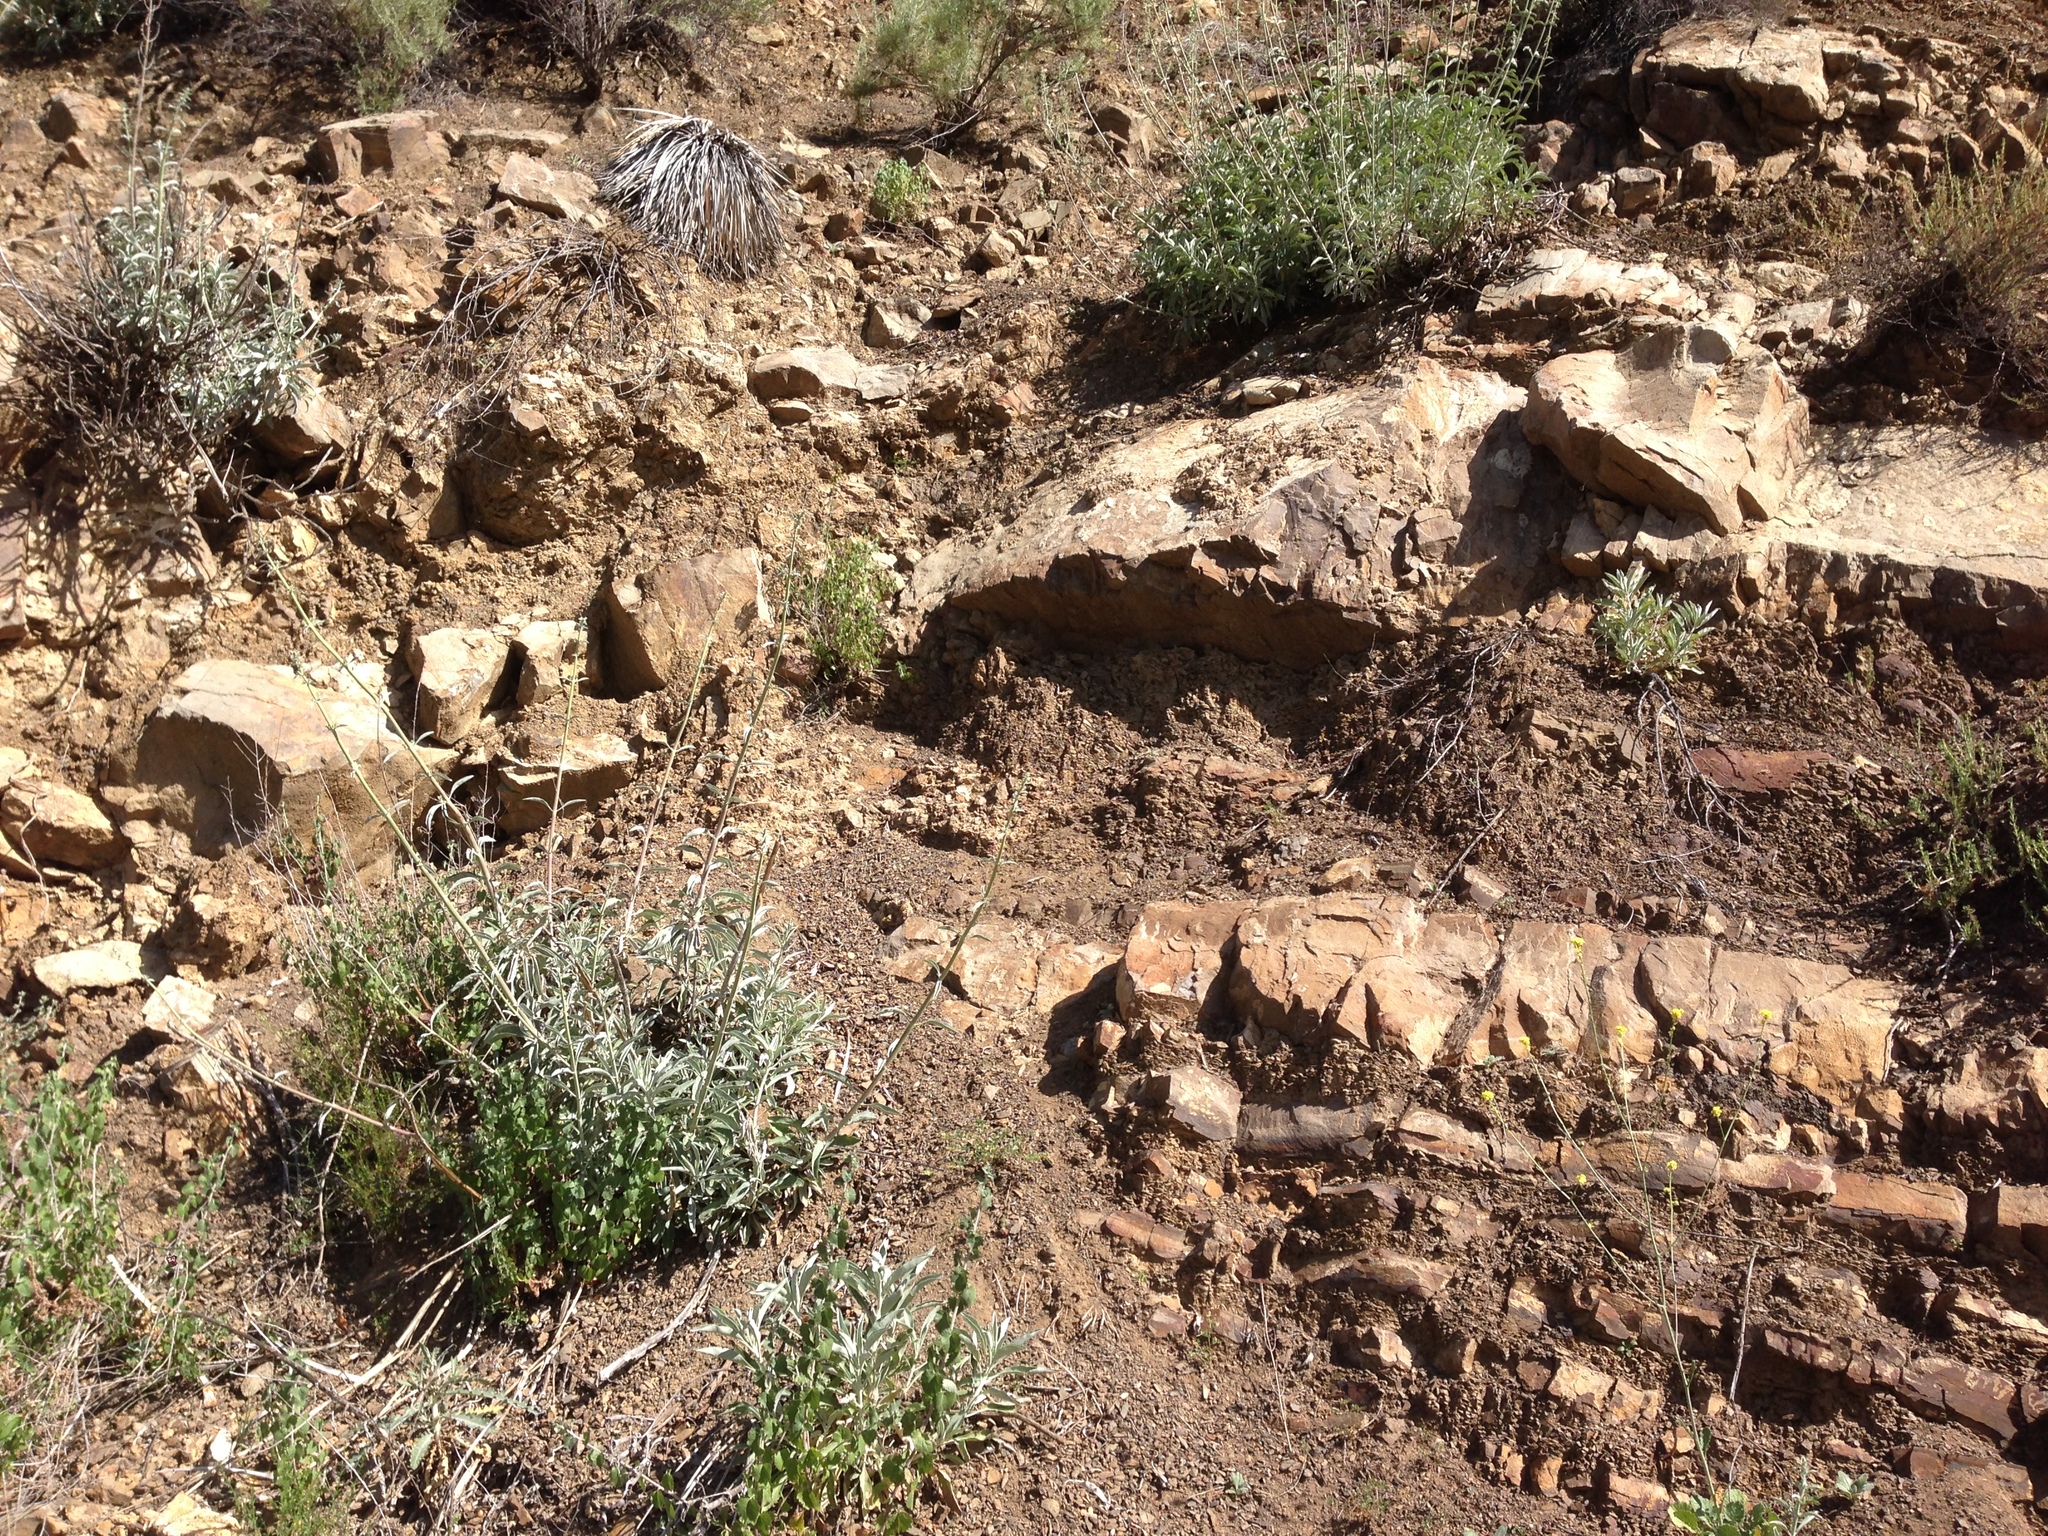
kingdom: Plantae
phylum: Tracheophyta
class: Magnoliopsida
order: Lamiales
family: Lamiaceae
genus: Salvia
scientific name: Salvia apiana
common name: White sage
